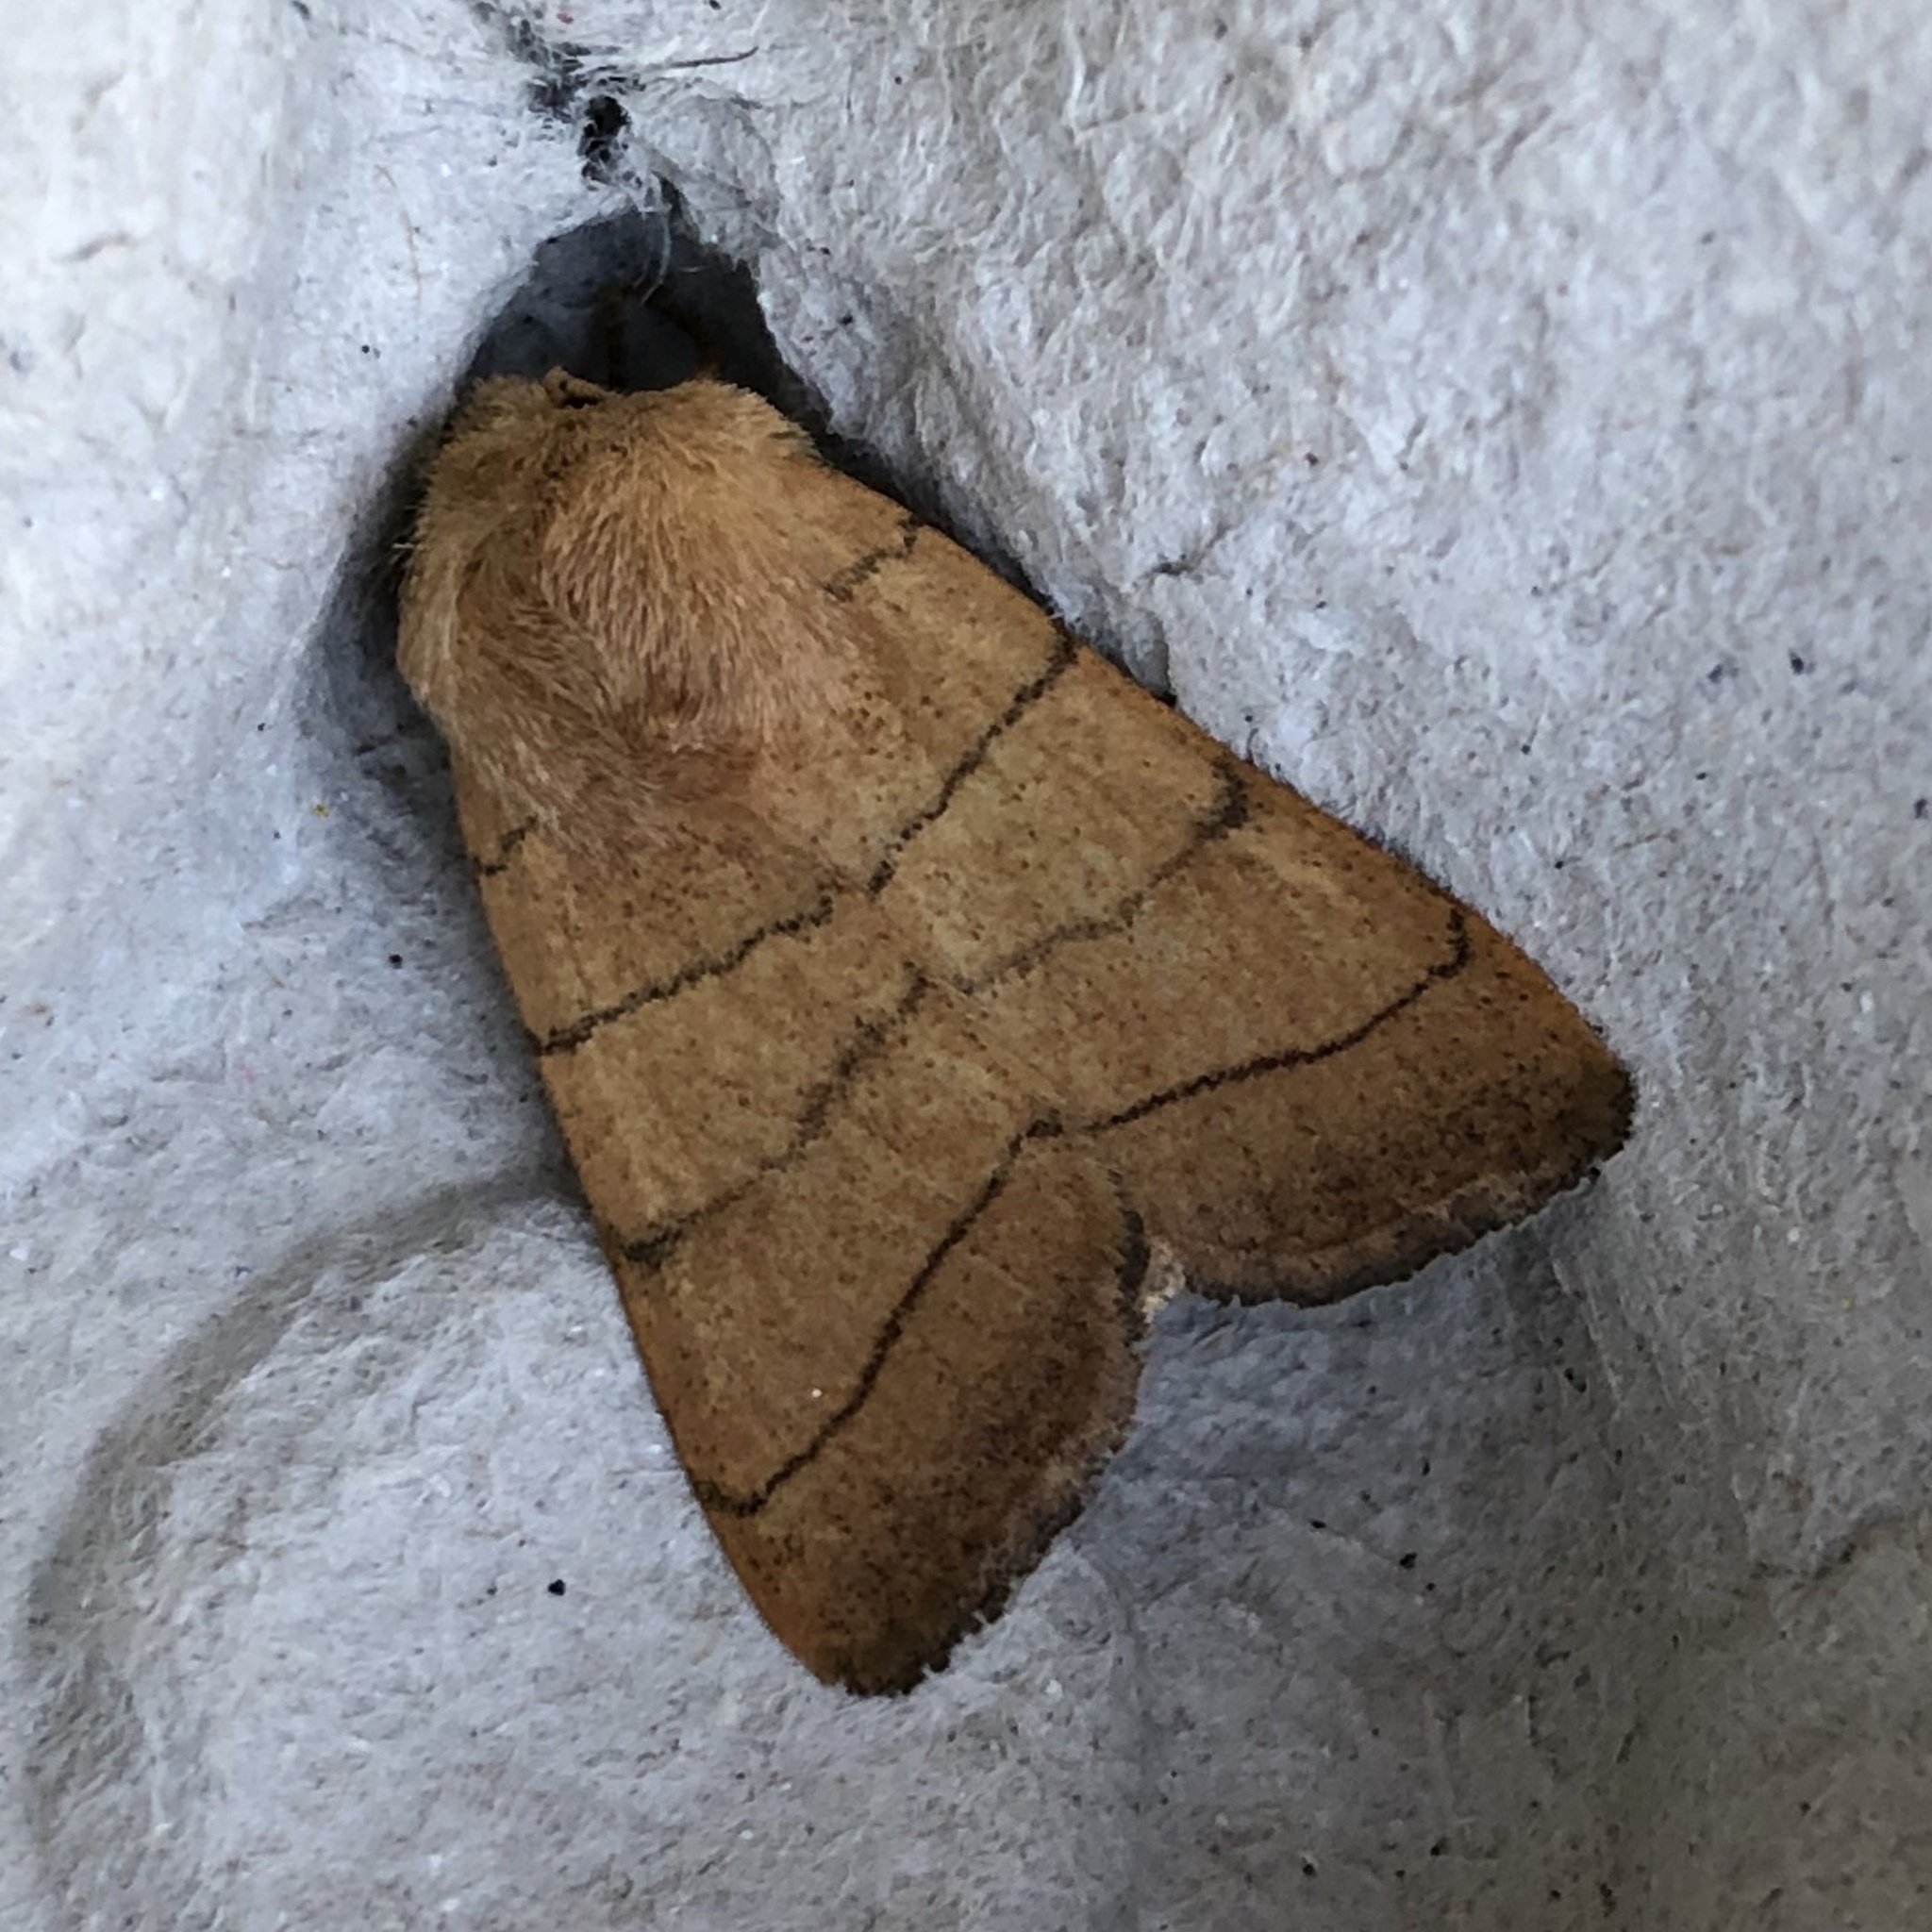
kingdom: Animalia
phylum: Arthropoda
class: Insecta
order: Lepidoptera
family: Noctuidae
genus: Charanyca
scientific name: Charanyca trigrammica
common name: Treble lines
